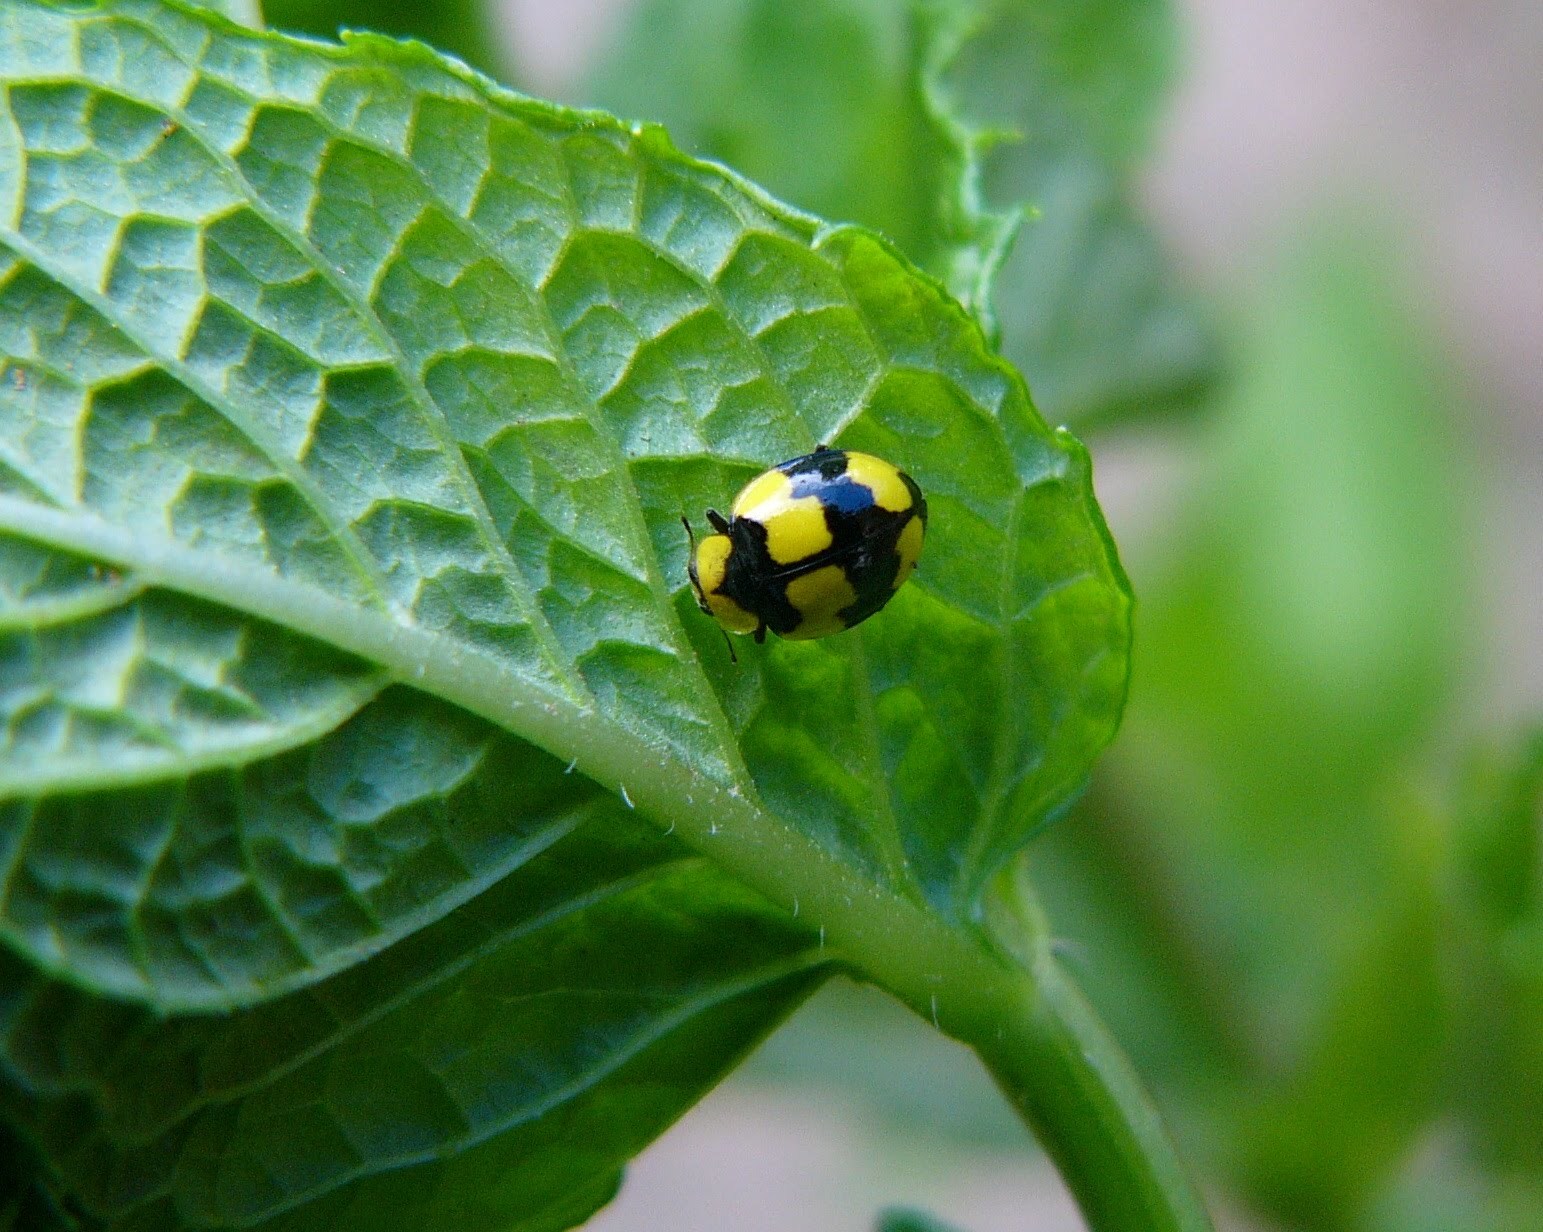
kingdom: Animalia
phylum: Arthropoda
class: Insecta
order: Coleoptera
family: Coccinellidae
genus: Illeis
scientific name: Illeis galbula
